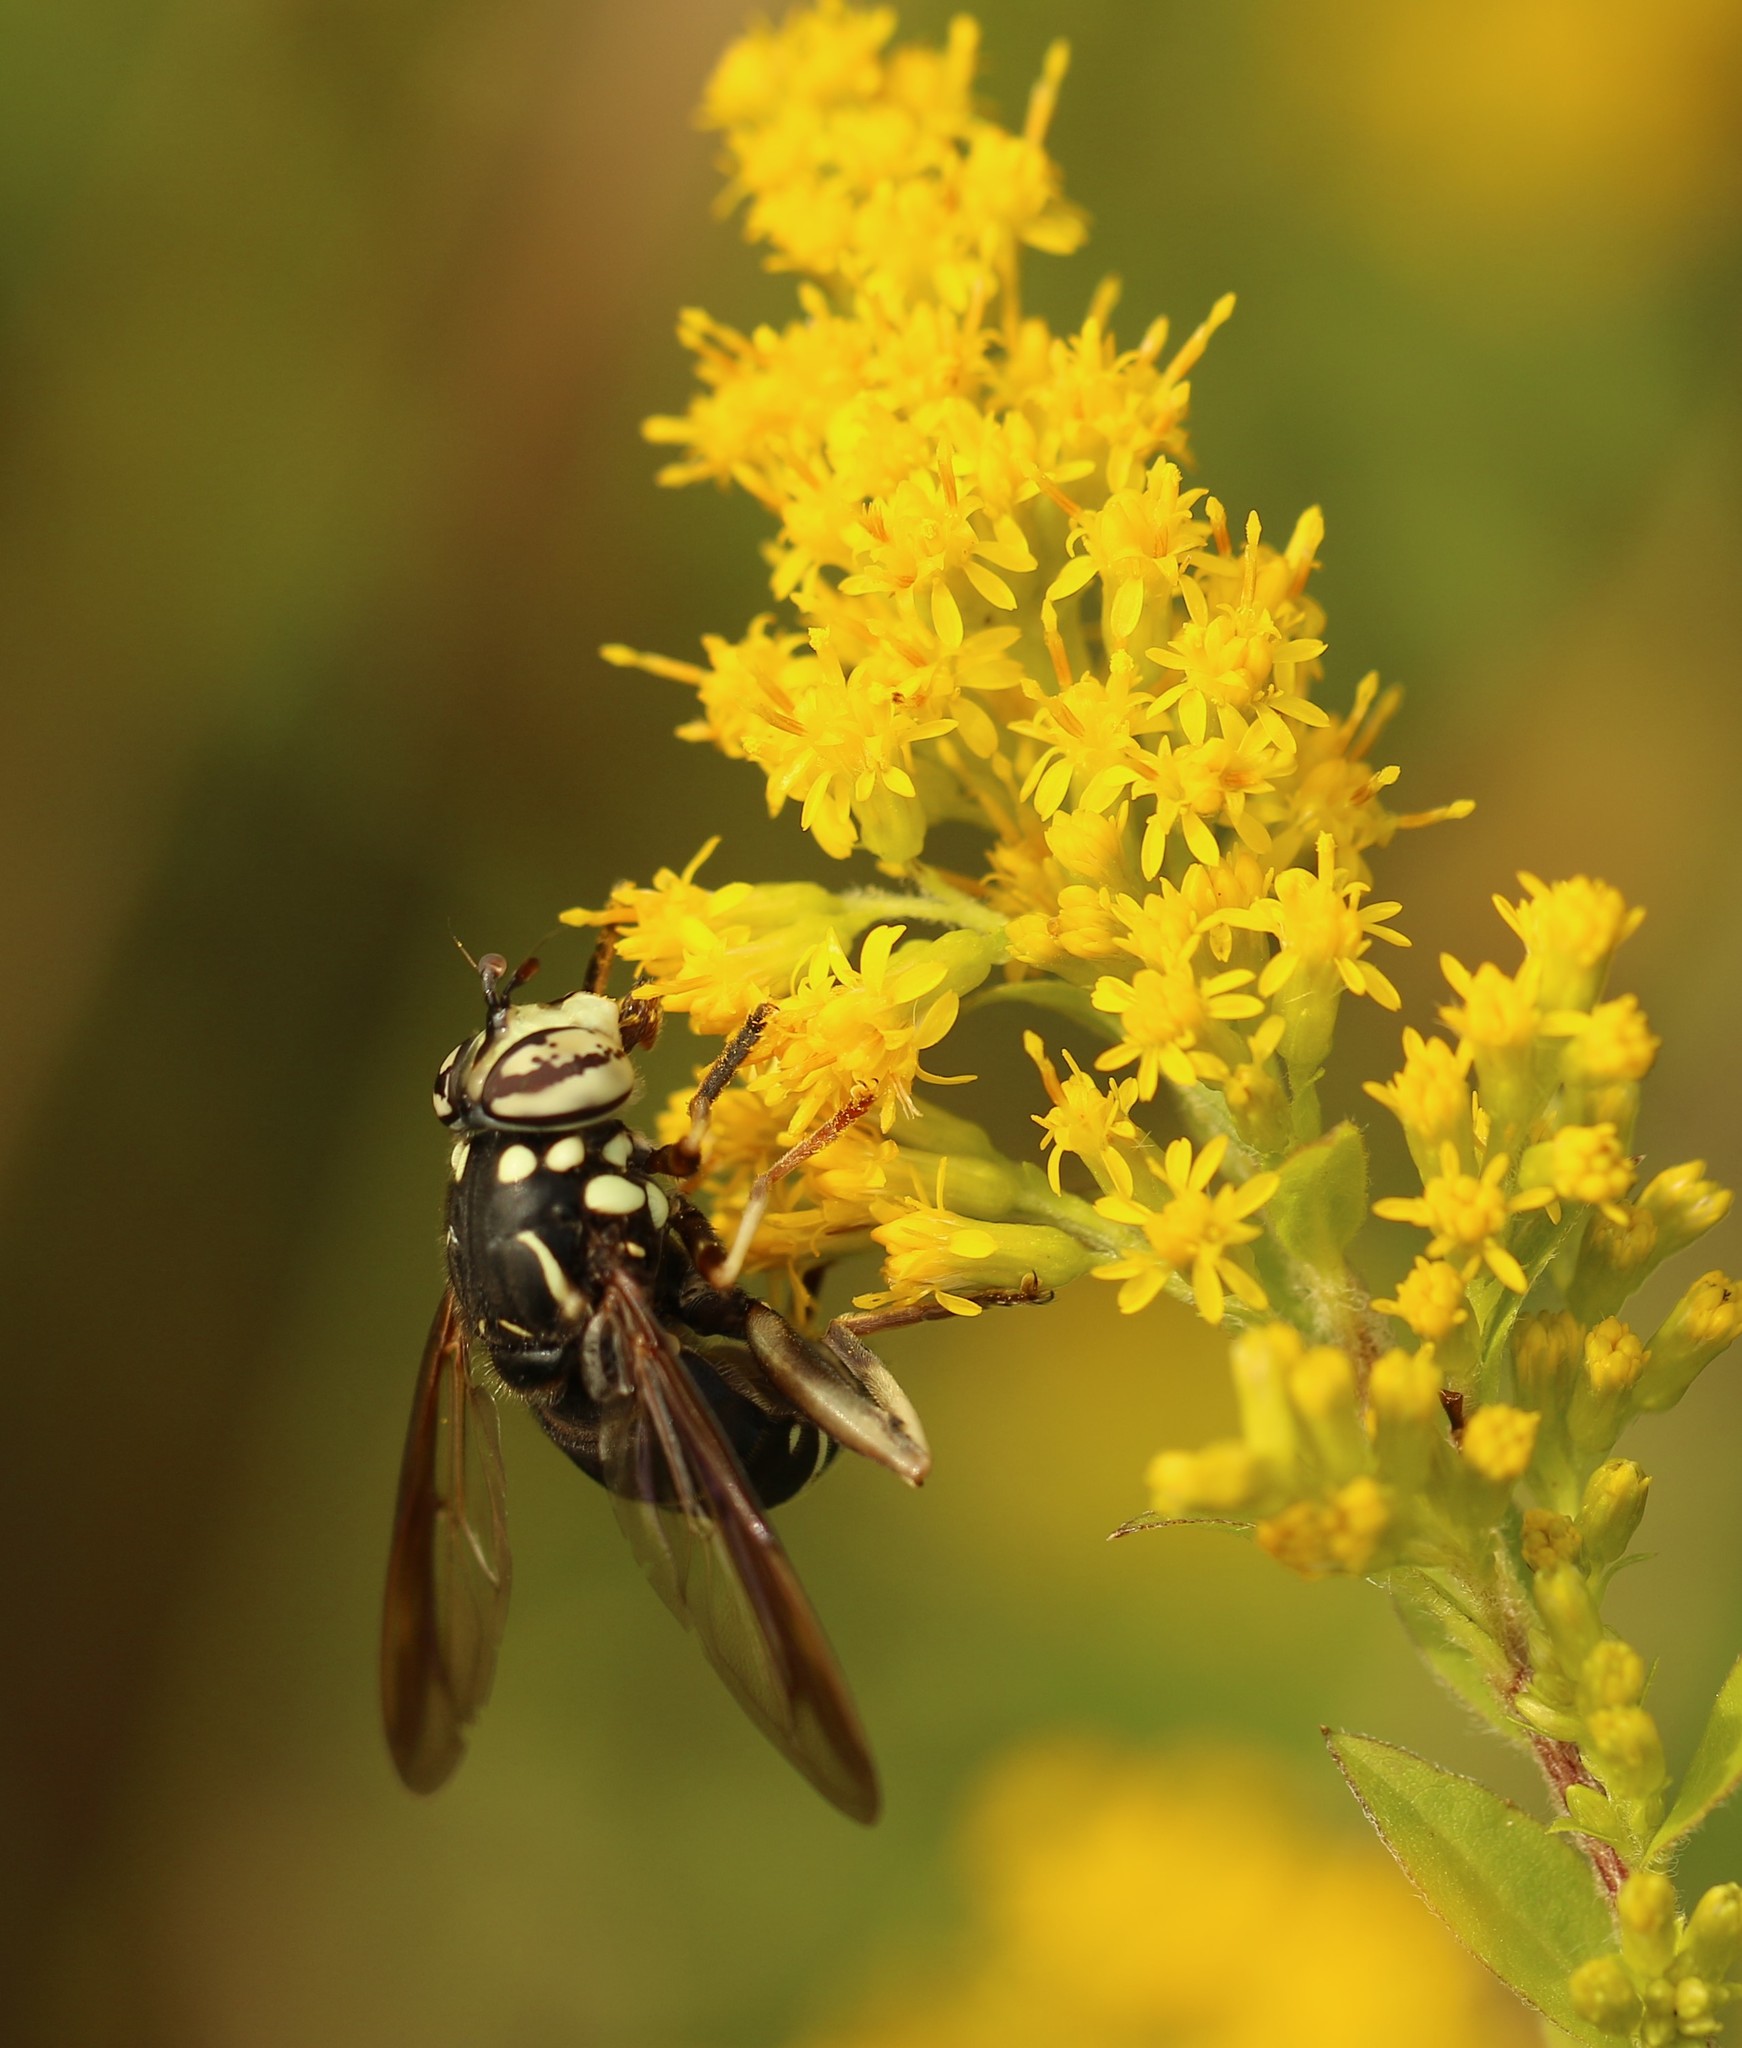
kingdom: Animalia
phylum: Arthropoda
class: Insecta
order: Diptera
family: Syrphidae
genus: Spilomyia
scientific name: Spilomyia fusca
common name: Bald-faced hornet fly
